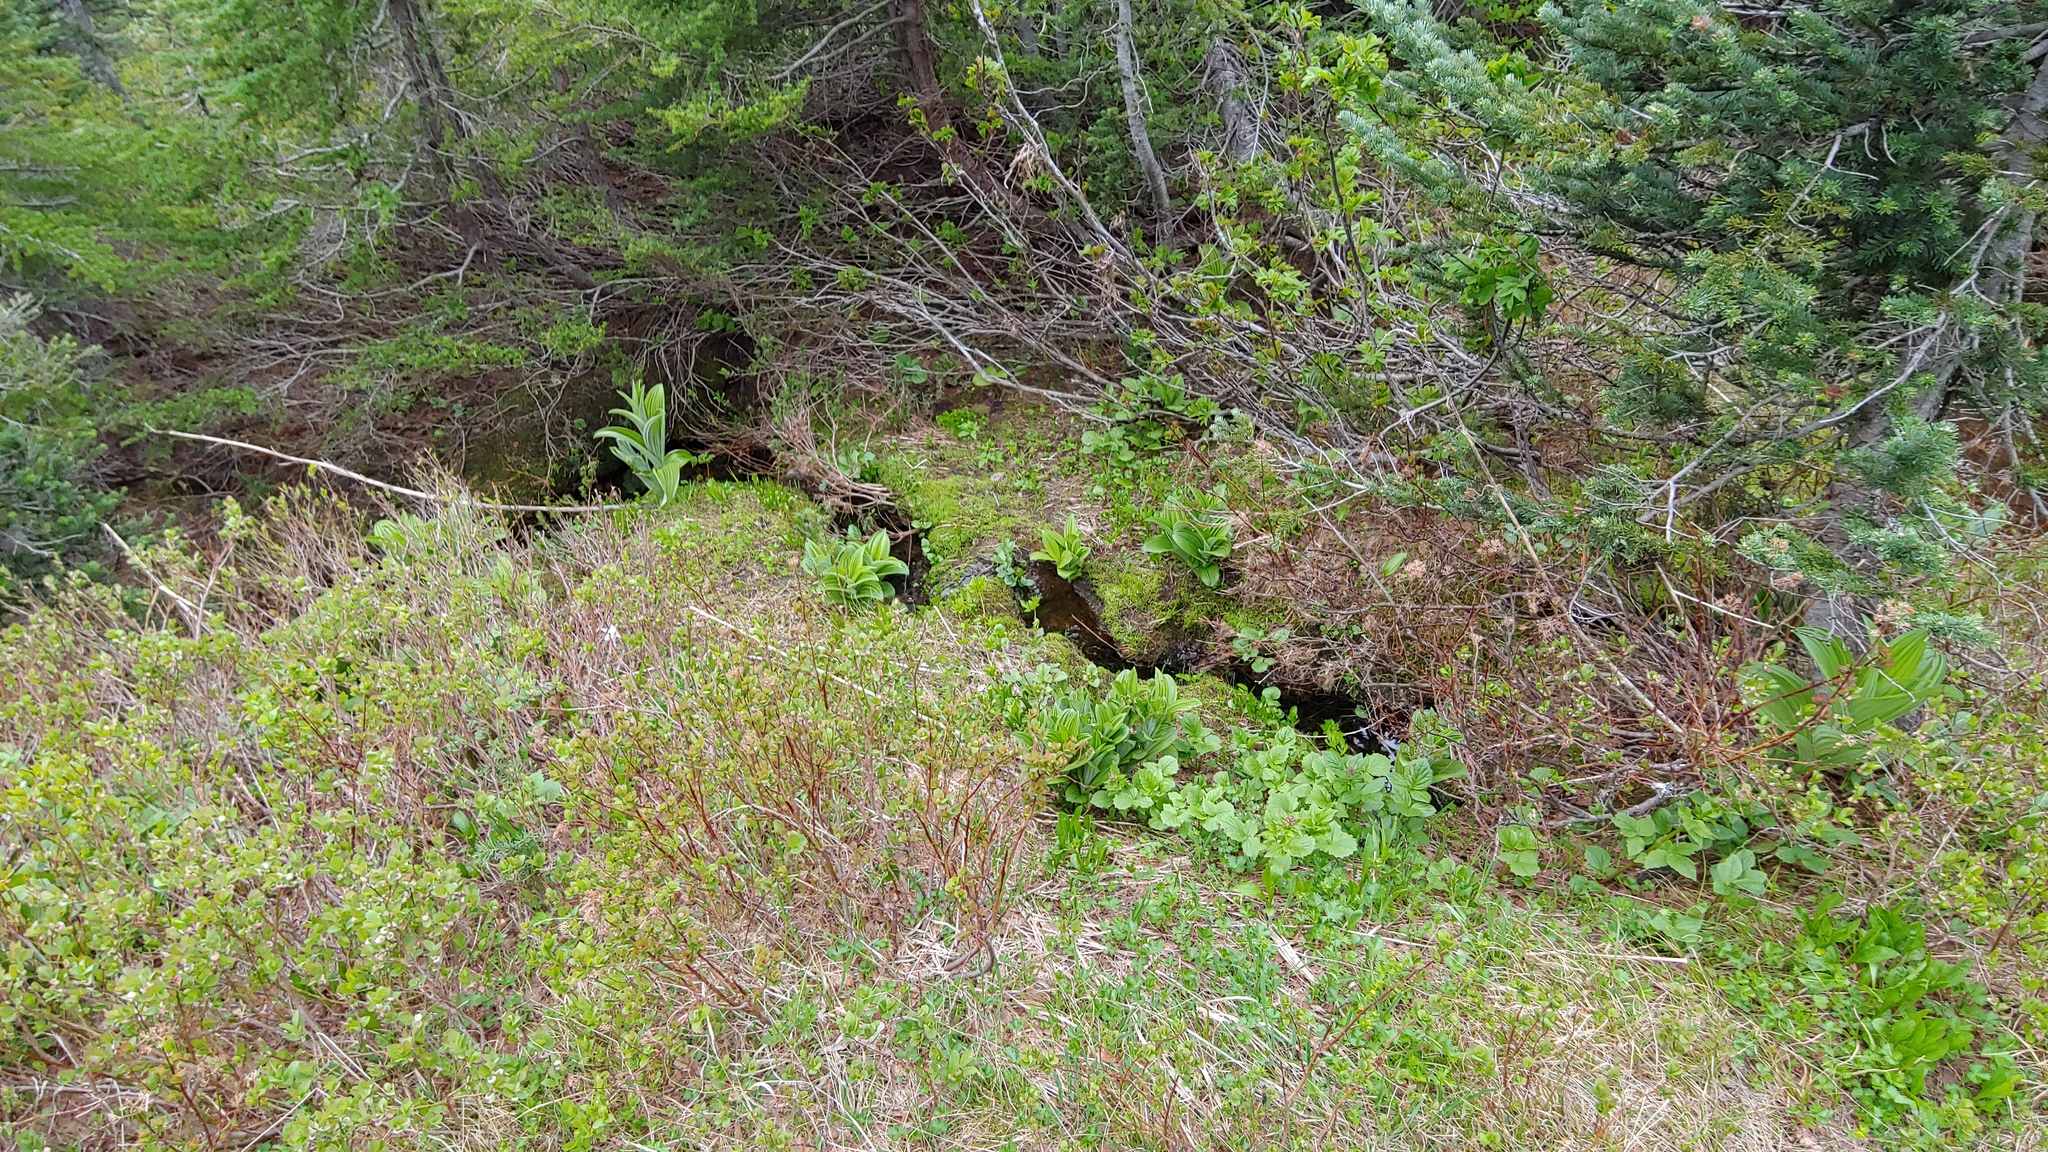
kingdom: Plantae
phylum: Tracheophyta
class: Liliopsida
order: Liliales
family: Melanthiaceae
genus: Veratrum
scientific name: Veratrum viride
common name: American false hellebore
